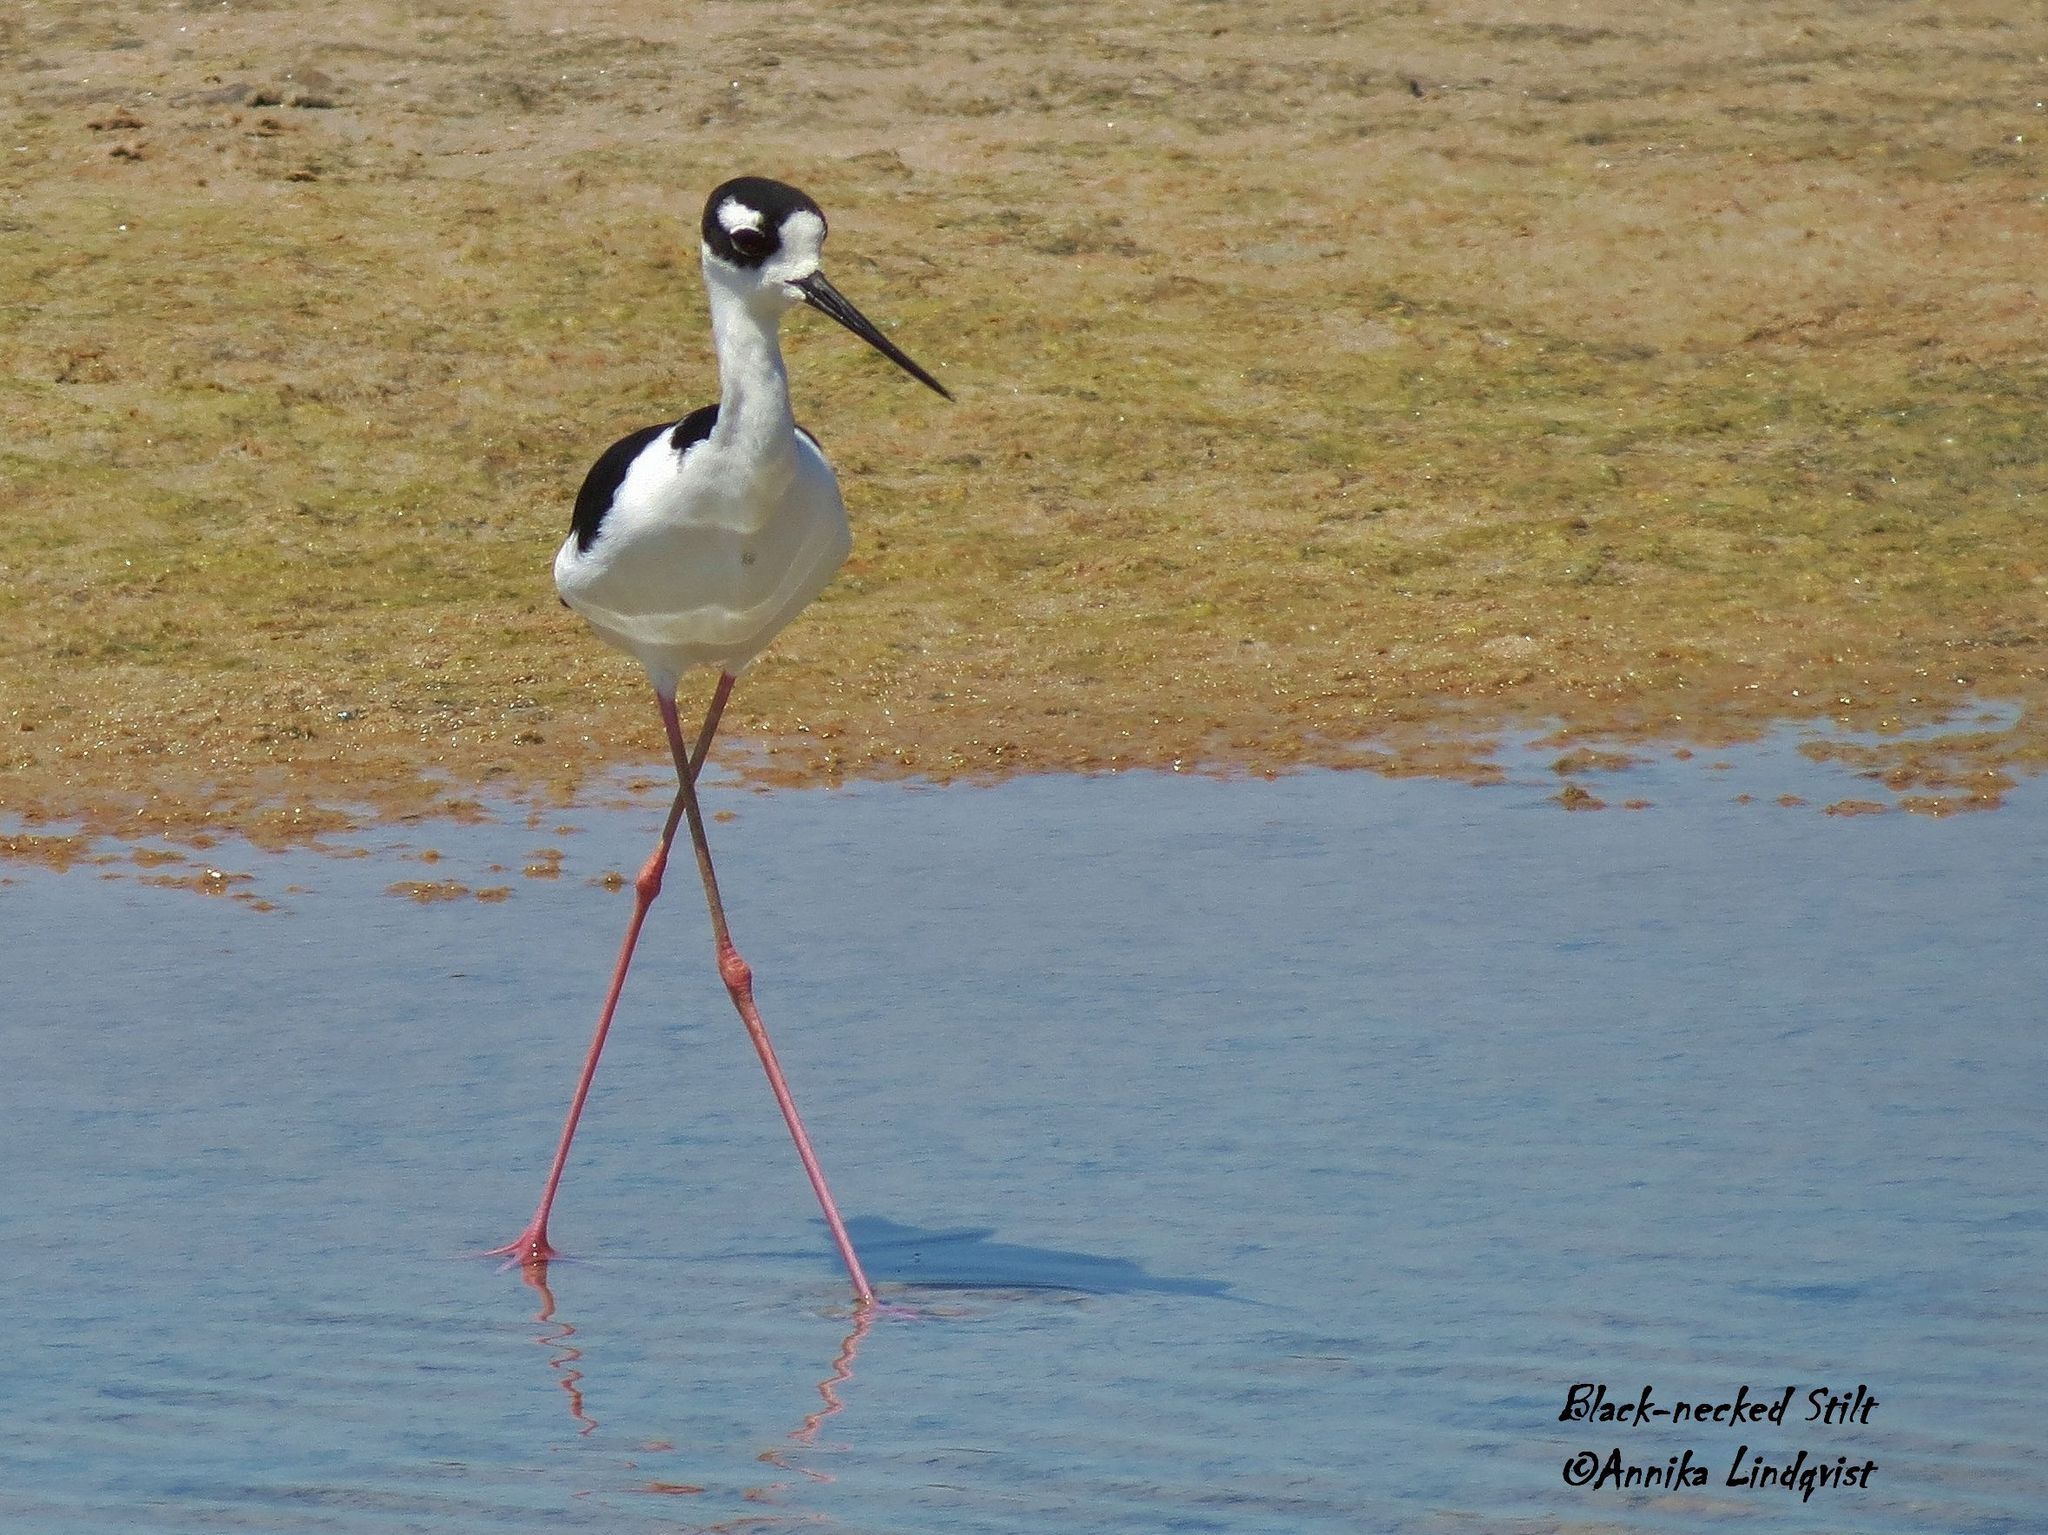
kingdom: Animalia
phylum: Chordata
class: Aves
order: Charadriiformes
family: Recurvirostridae
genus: Himantopus
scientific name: Himantopus mexicanus
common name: Black-necked stilt
